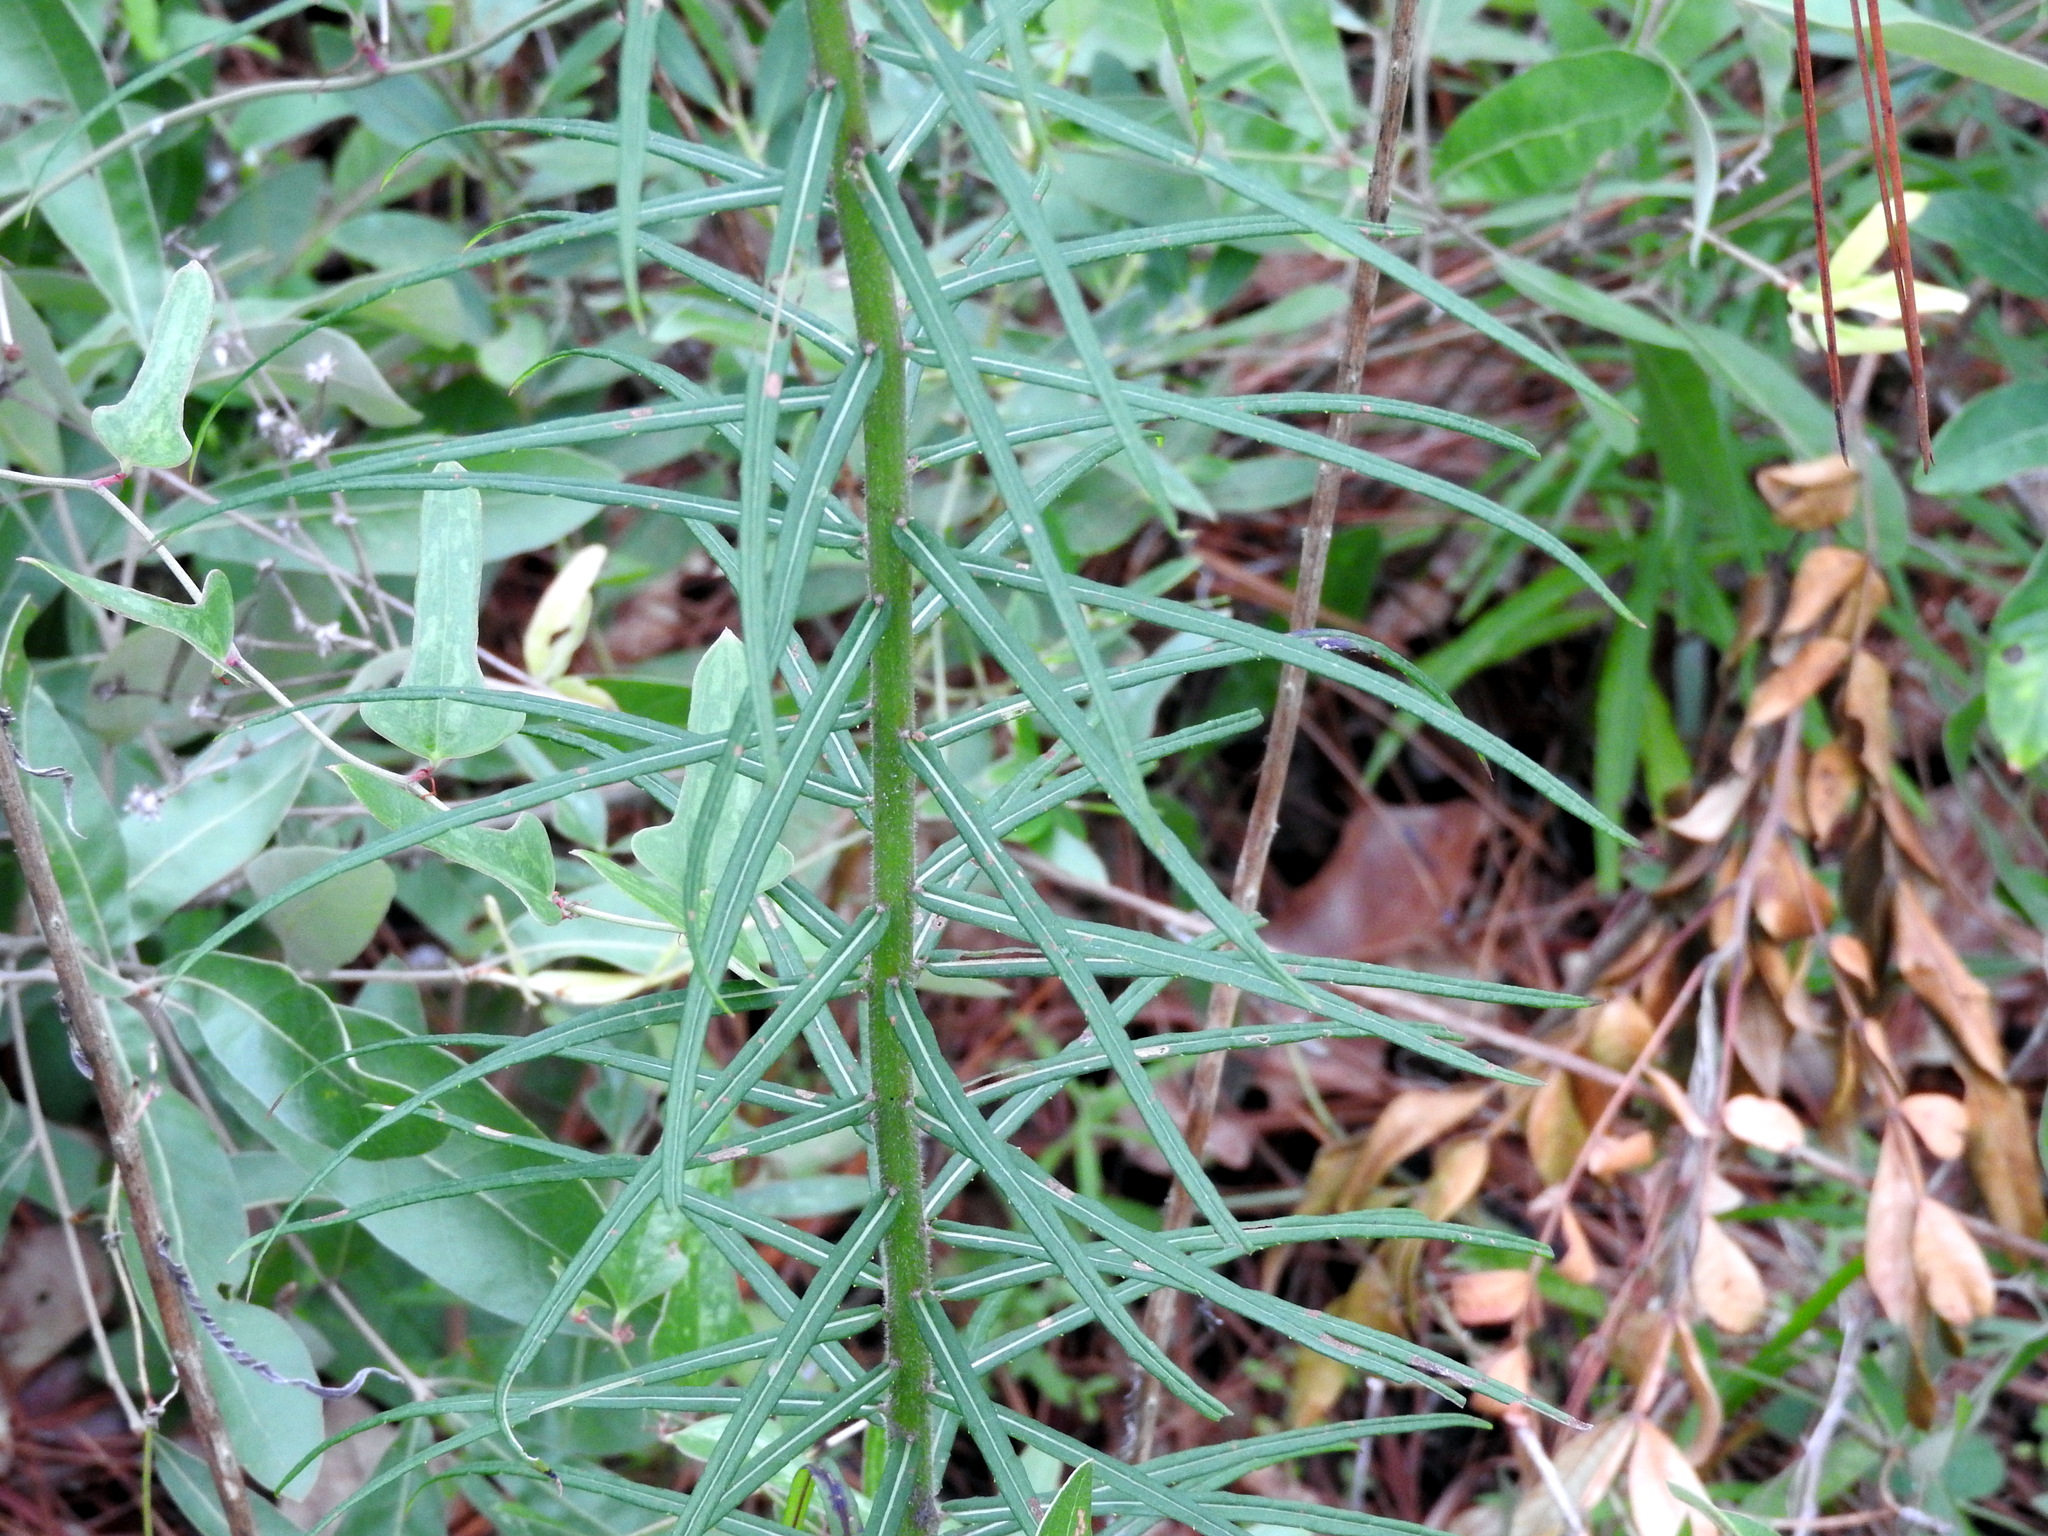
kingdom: Plantae
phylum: Tracheophyta
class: Magnoliopsida
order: Asterales
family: Asteraceae
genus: Vernonia
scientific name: Vernonia angustifolia
